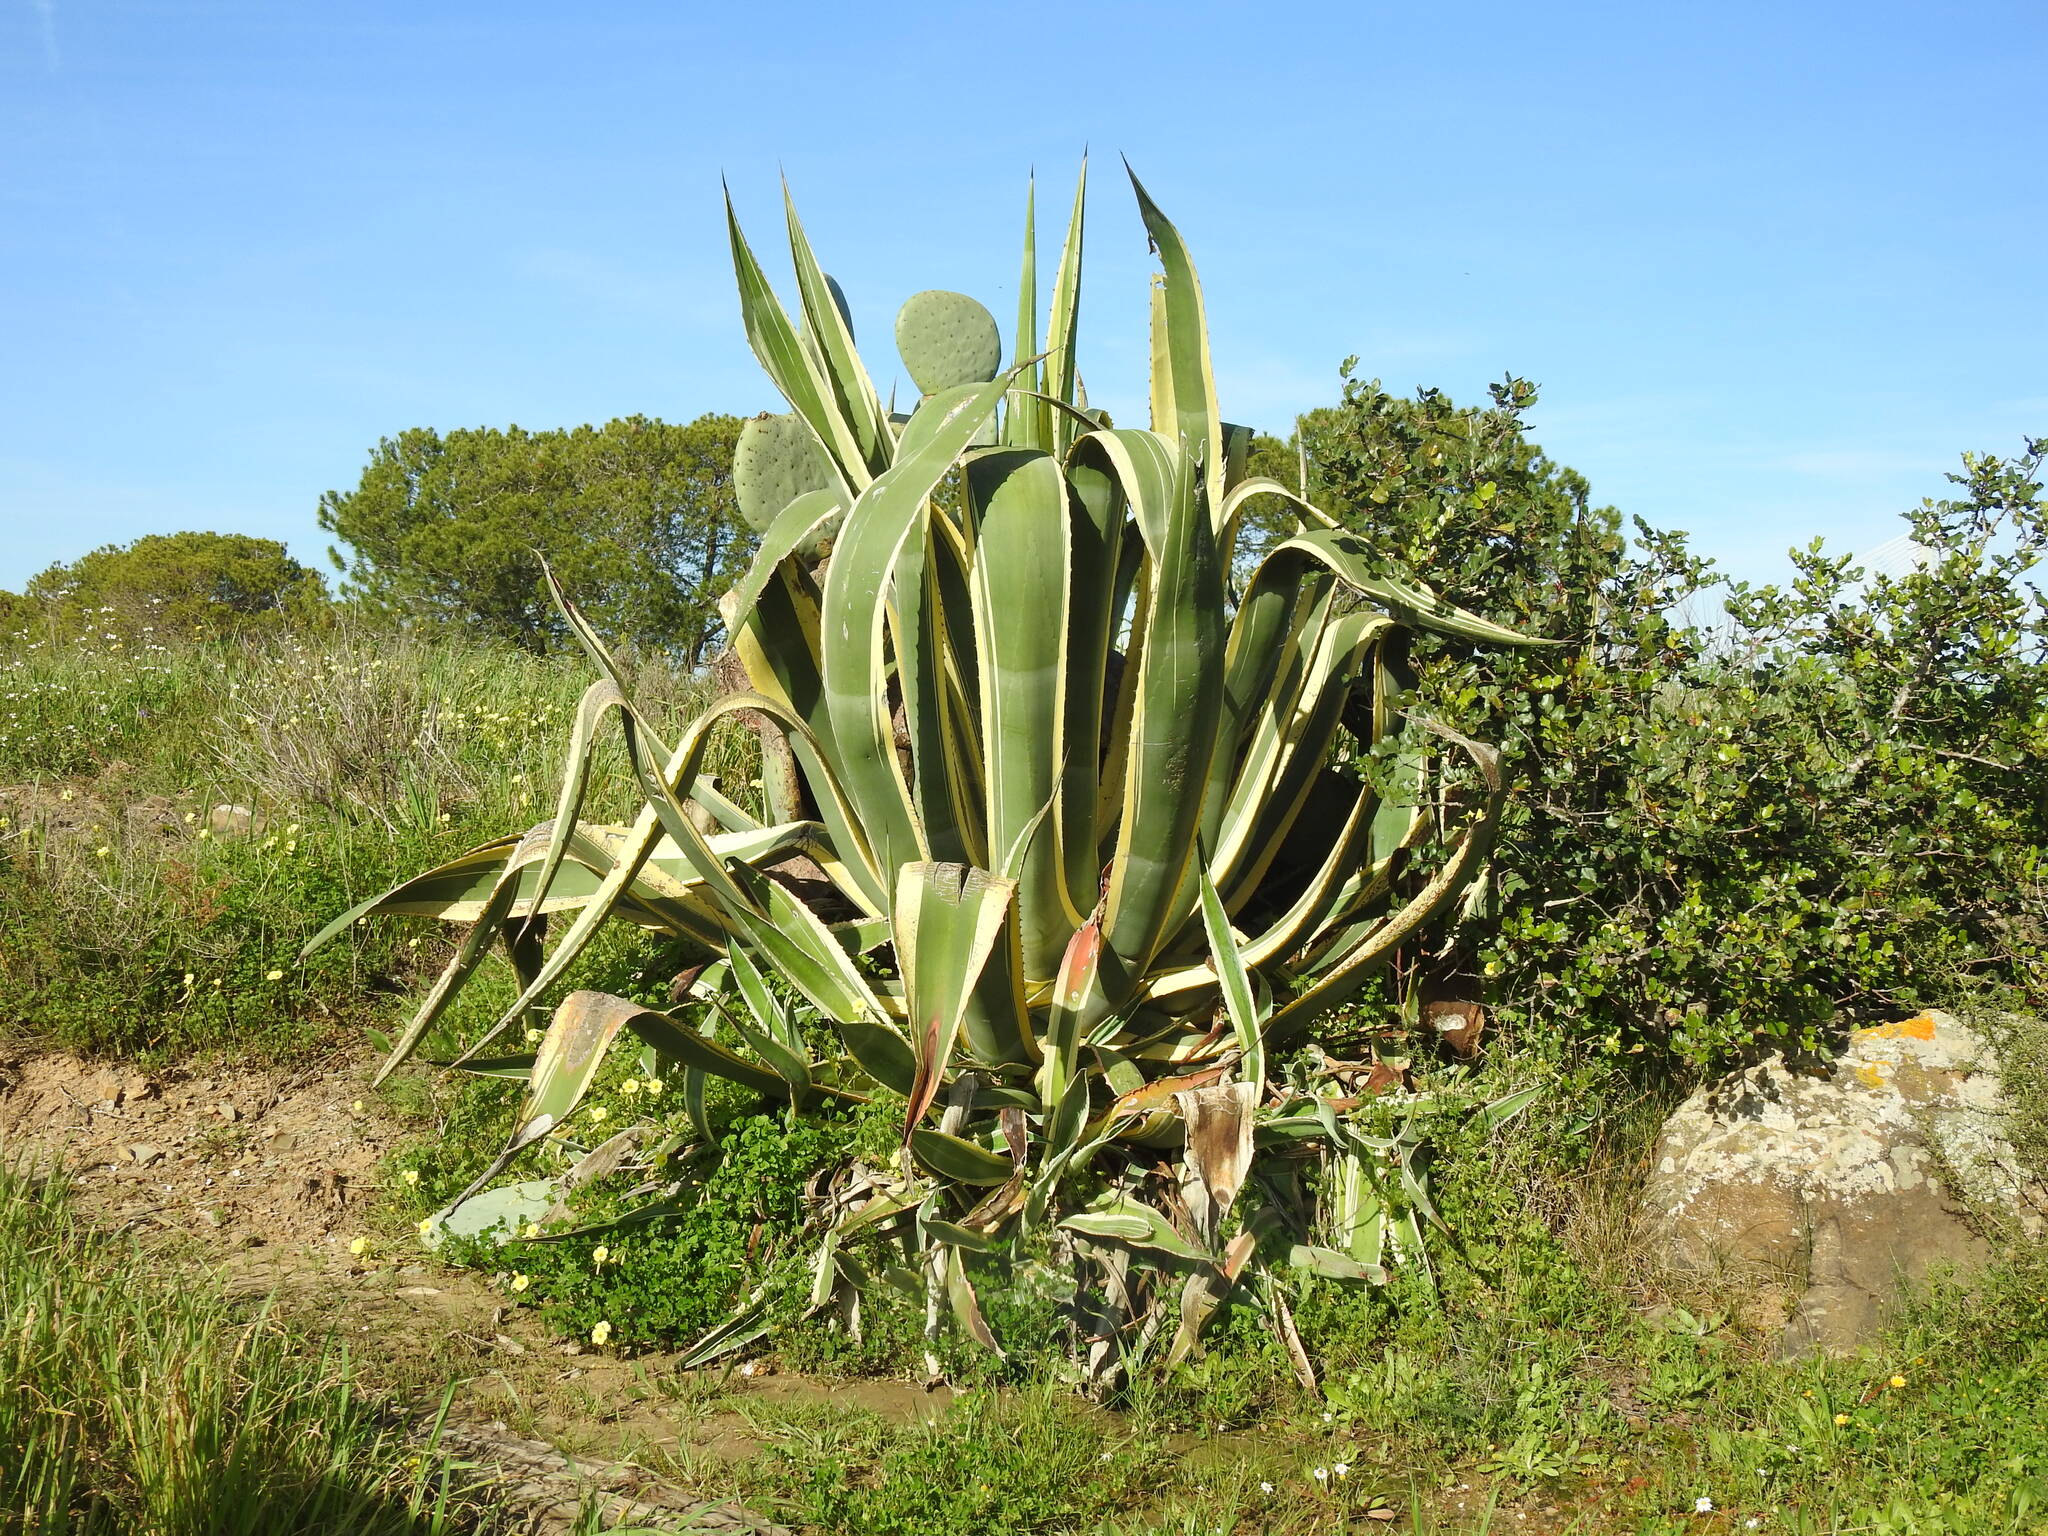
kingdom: Plantae
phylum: Tracheophyta
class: Liliopsida
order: Asparagales
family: Asparagaceae
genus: Agave
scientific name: Agave americana
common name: Centuryplant
